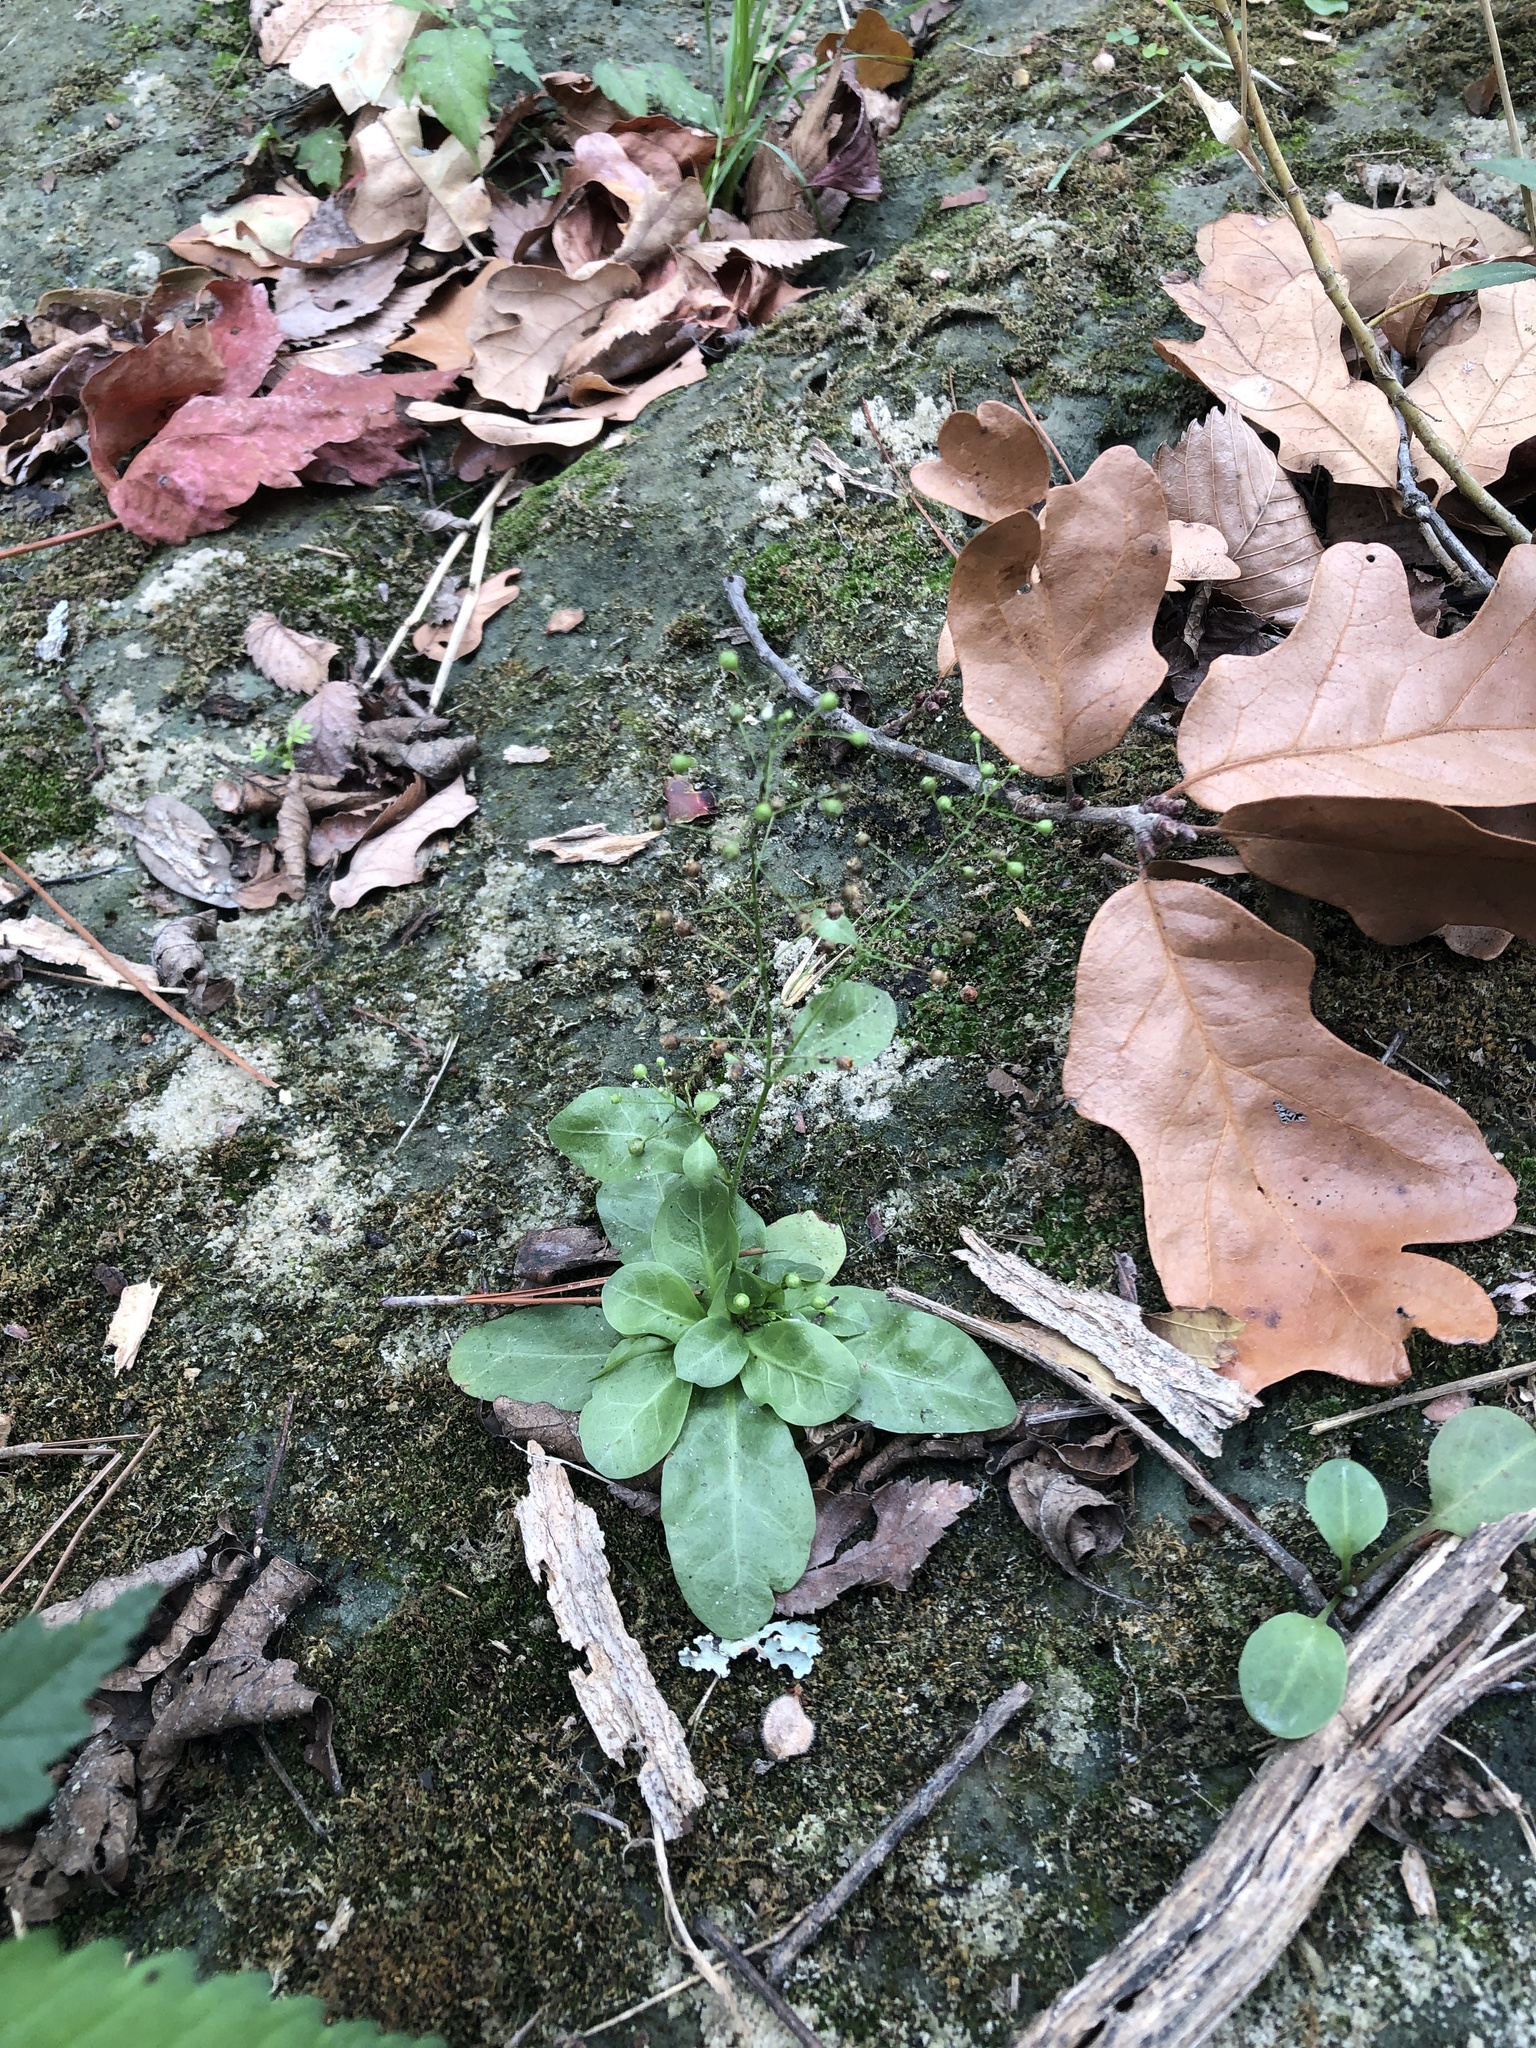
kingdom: Plantae
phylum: Tracheophyta
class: Magnoliopsida
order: Ericales
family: Primulaceae
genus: Samolus
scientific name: Samolus parviflorus
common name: False water pimpernel
